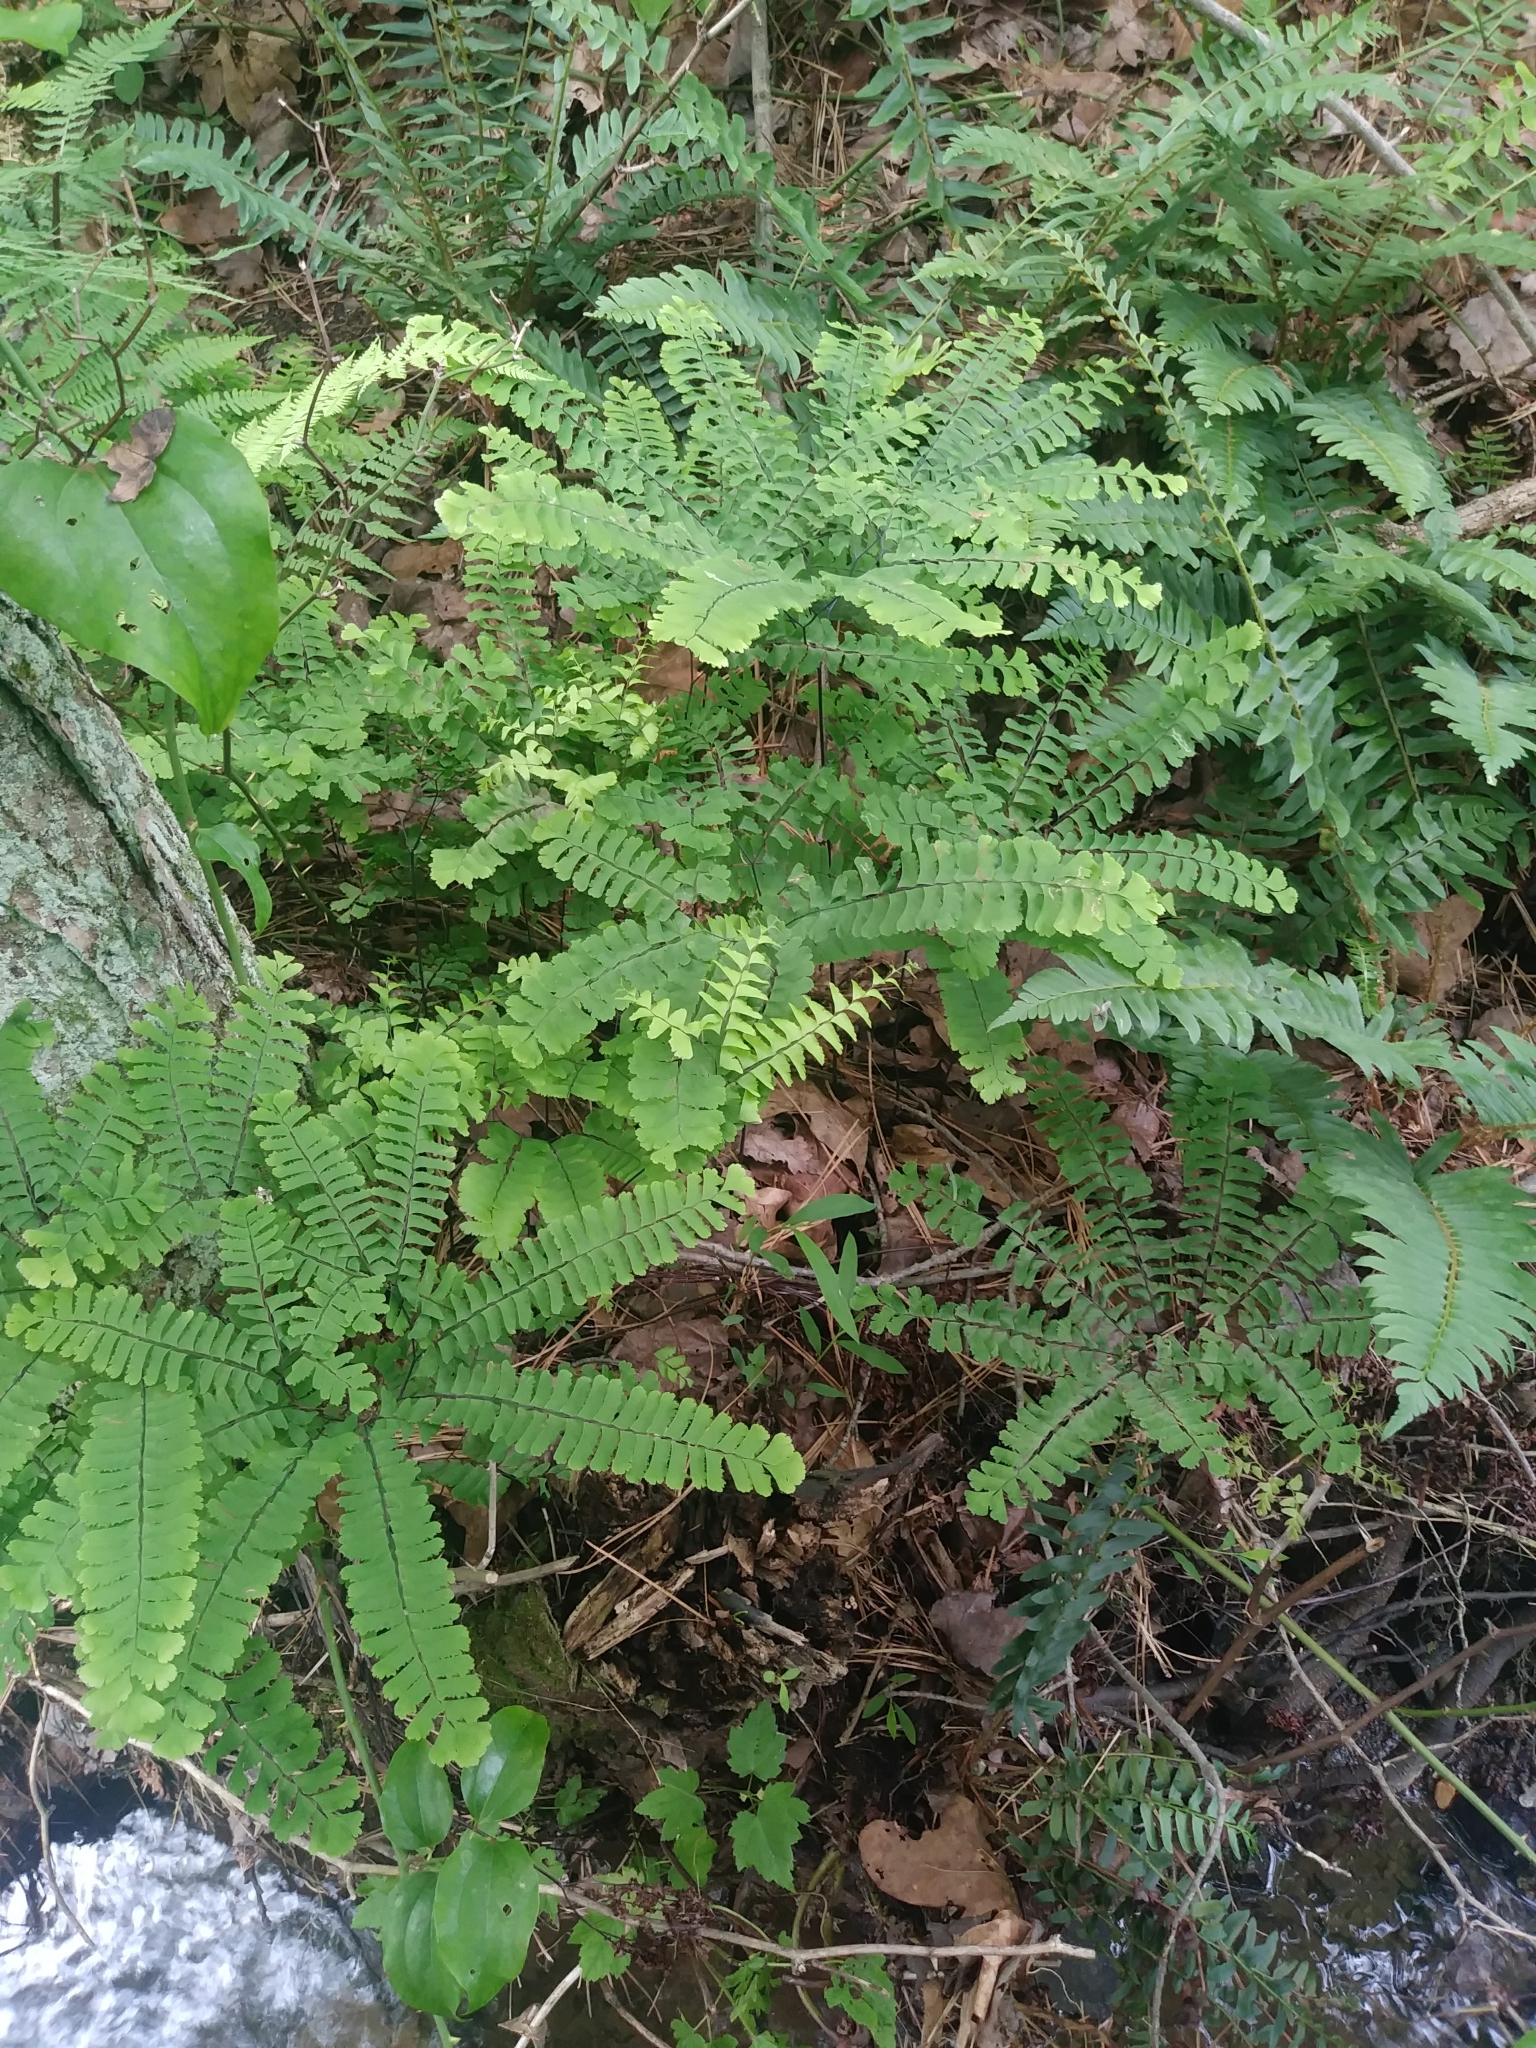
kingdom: Plantae
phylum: Tracheophyta
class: Polypodiopsida
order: Polypodiales
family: Pteridaceae
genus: Adiantum
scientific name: Adiantum pedatum
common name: Five-finger fern
